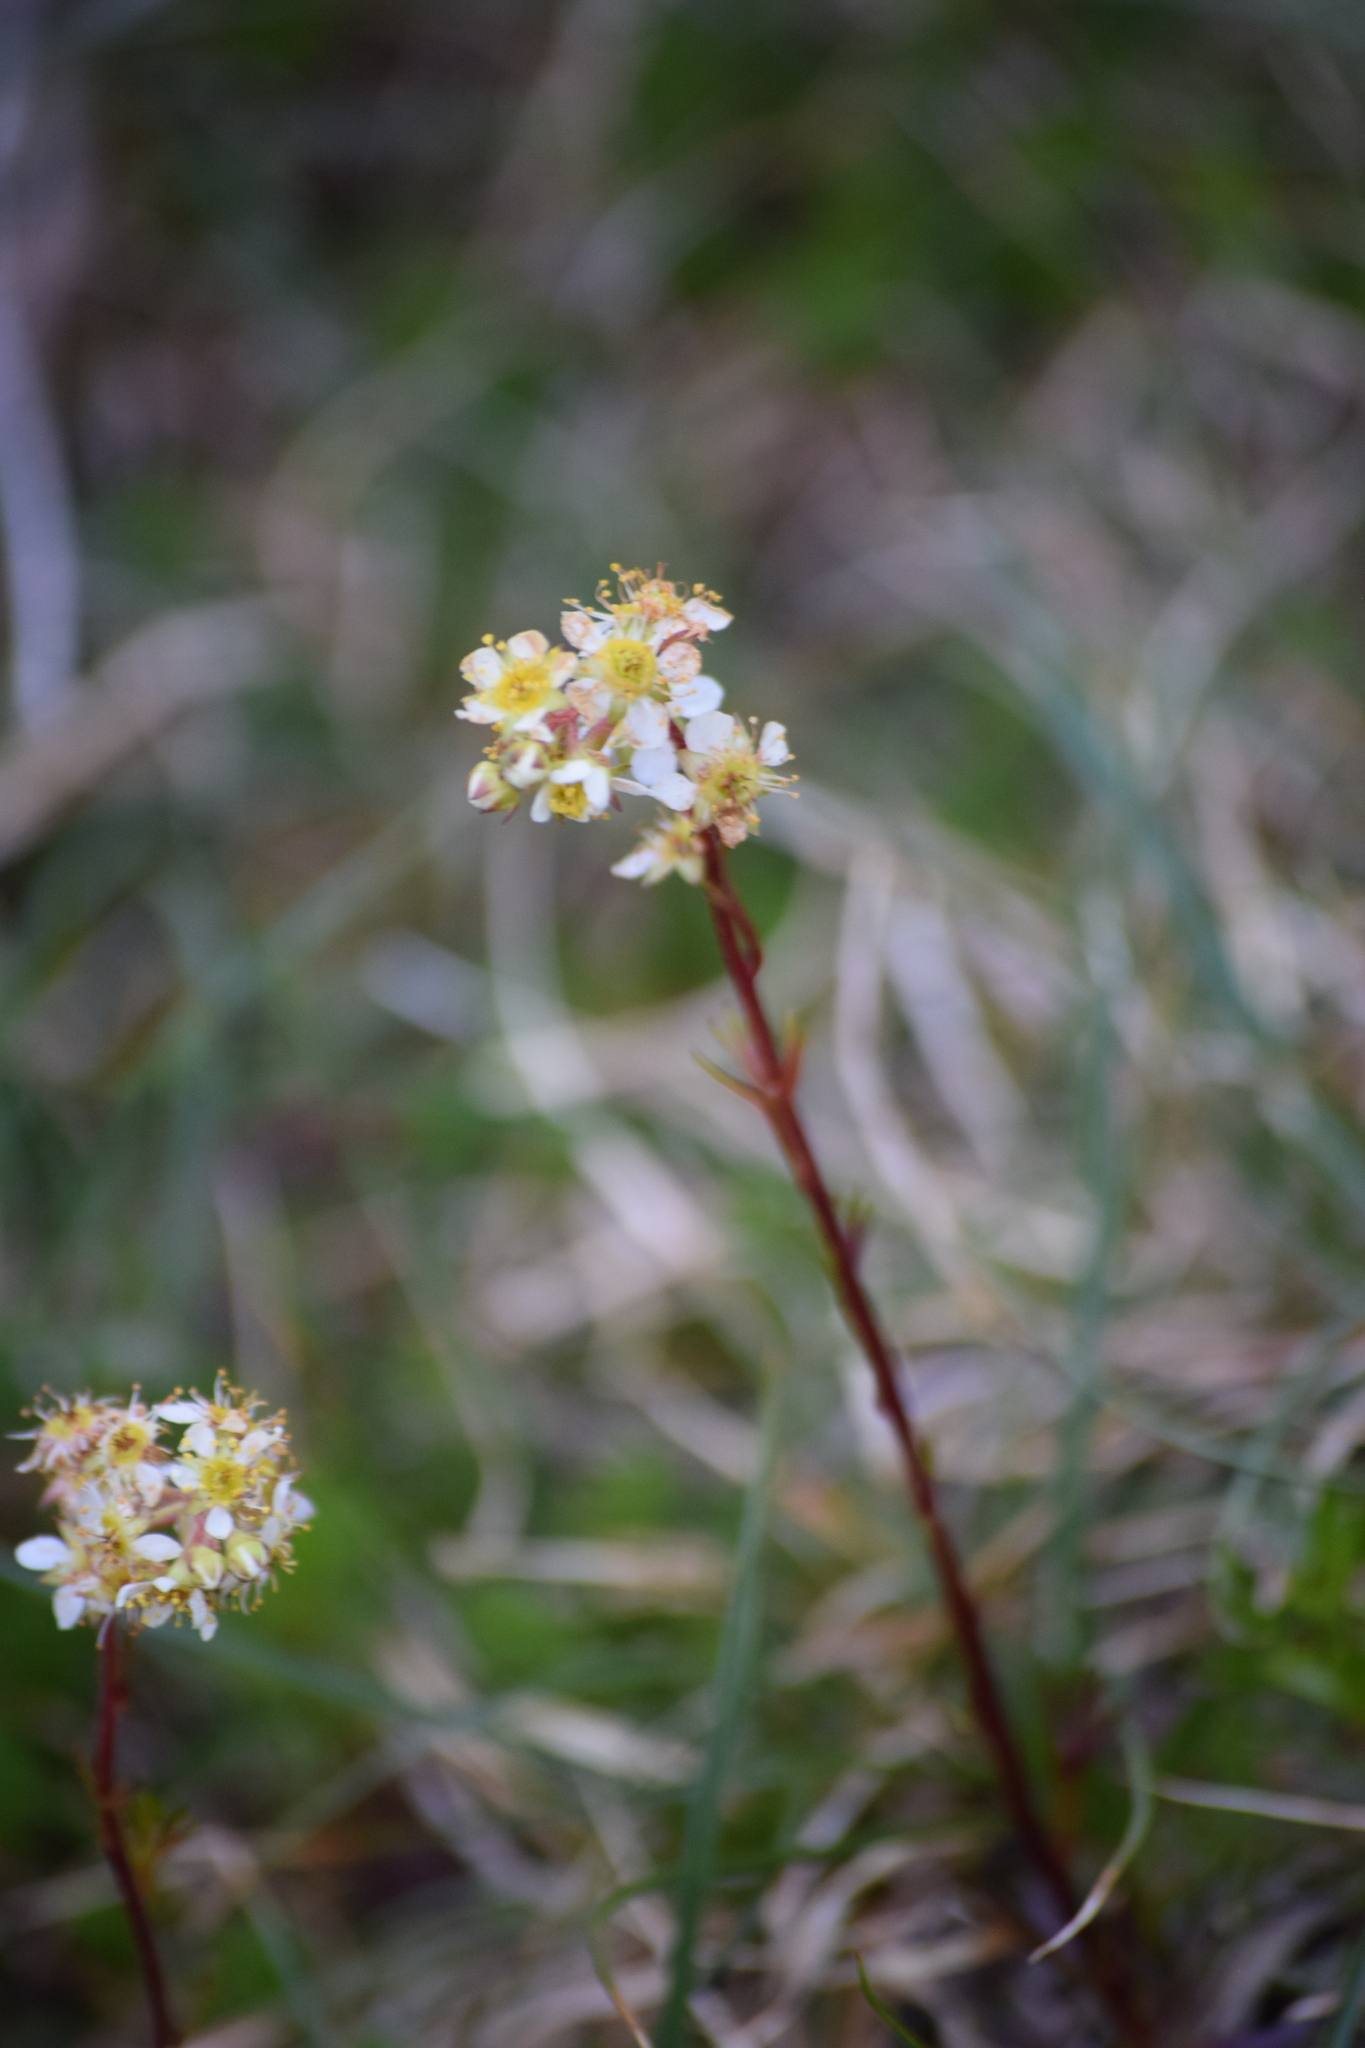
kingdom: Plantae
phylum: Tracheophyta
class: Magnoliopsida
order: Rosales
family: Rosaceae
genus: Luetkea
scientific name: Luetkea pectinata
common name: Partridgefoot
